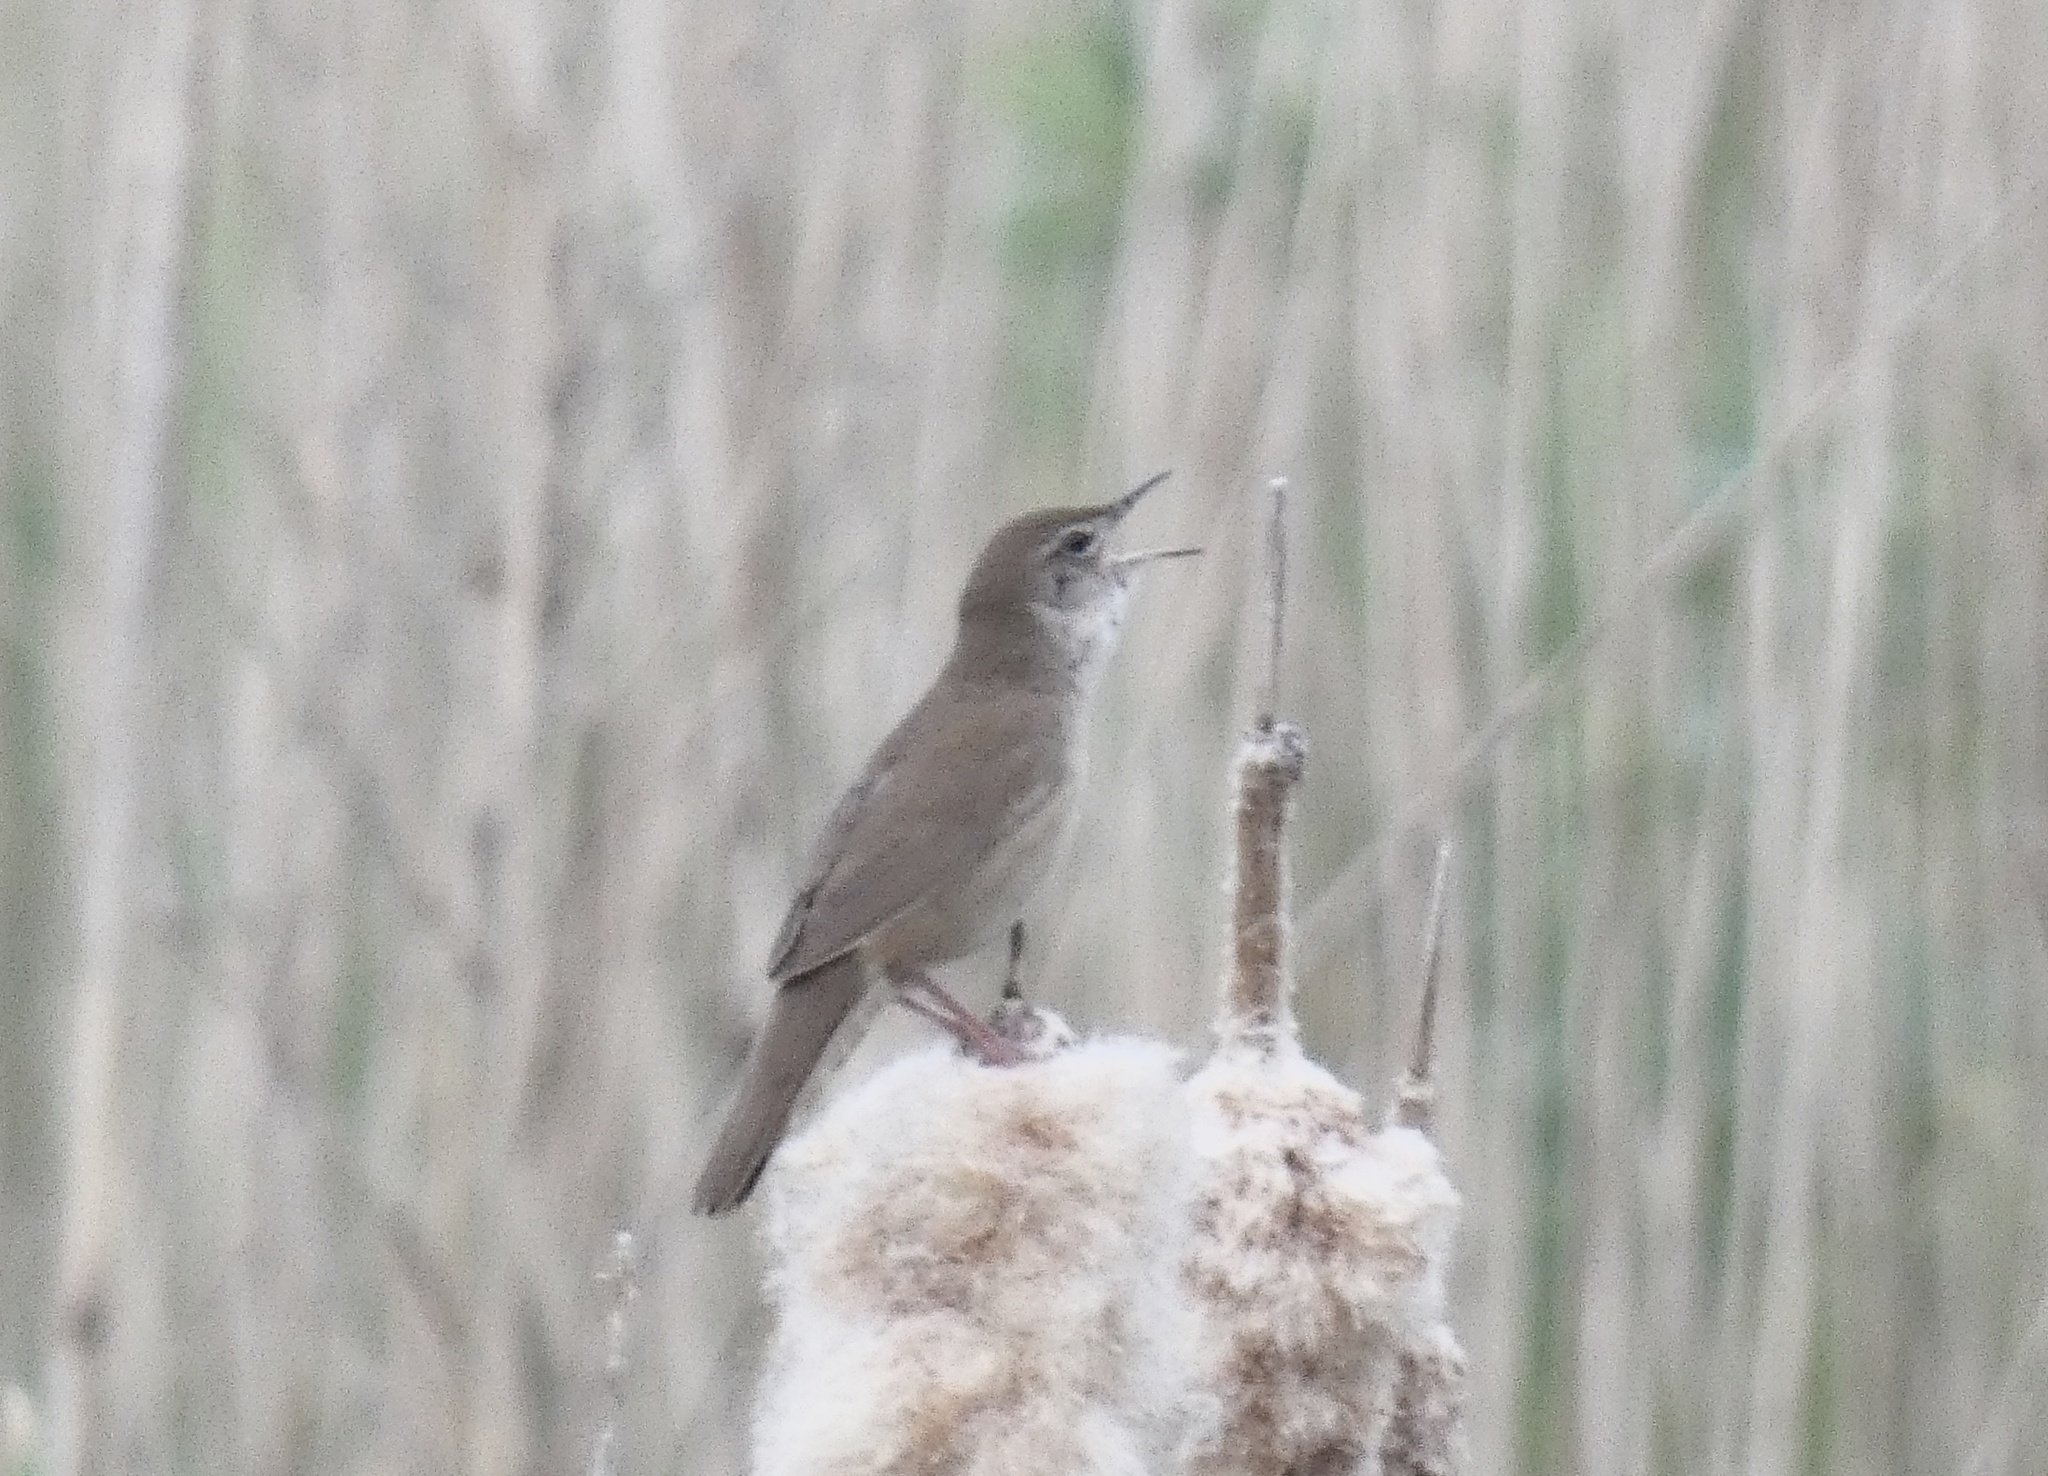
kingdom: Animalia
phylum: Chordata
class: Aves
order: Passeriformes
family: Locustellidae
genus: Locustella
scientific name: Locustella luscinioides
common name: Savi's warbler
